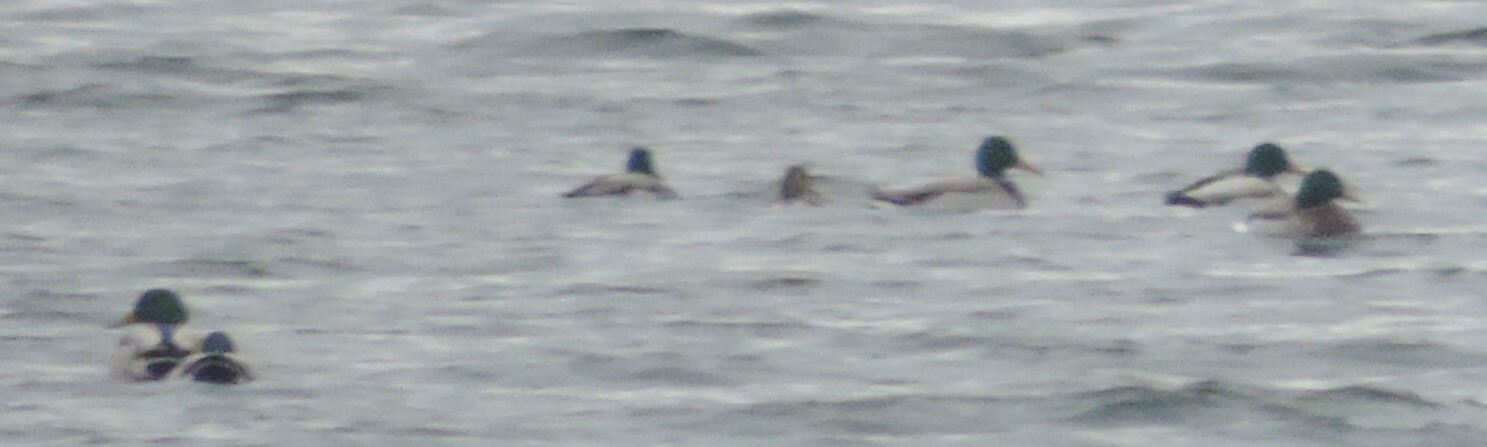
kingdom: Animalia
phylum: Chordata
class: Aves
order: Anseriformes
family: Anatidae
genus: Anas
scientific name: Anas platyrhynchos
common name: Mallard
